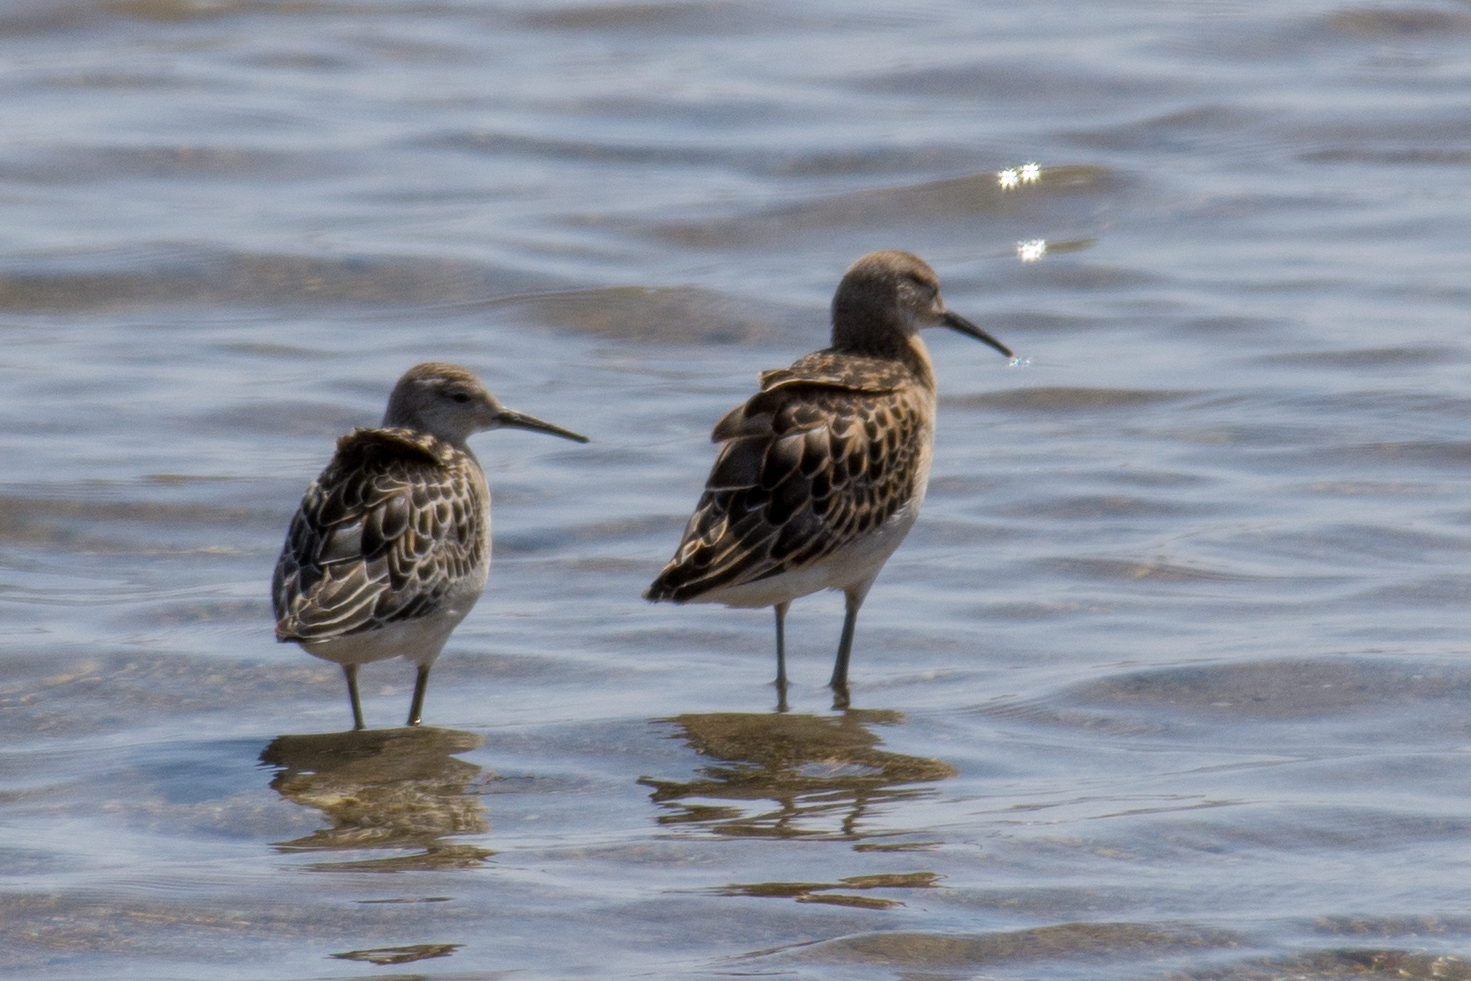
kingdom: Animalia
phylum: Chordata
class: Aves
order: Charadriiformes
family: Scolopacidae
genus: Calidris
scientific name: Calidris pugnax
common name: Ruff
